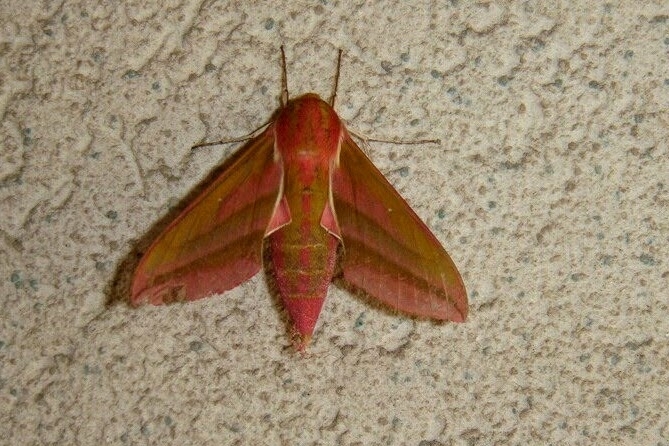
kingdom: Animalia
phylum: Arthropoda
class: Insecta
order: Lepidoptera
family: Sphingidae
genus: Deilephila
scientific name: Deilephila elpenor
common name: Elephant hawk-moth
